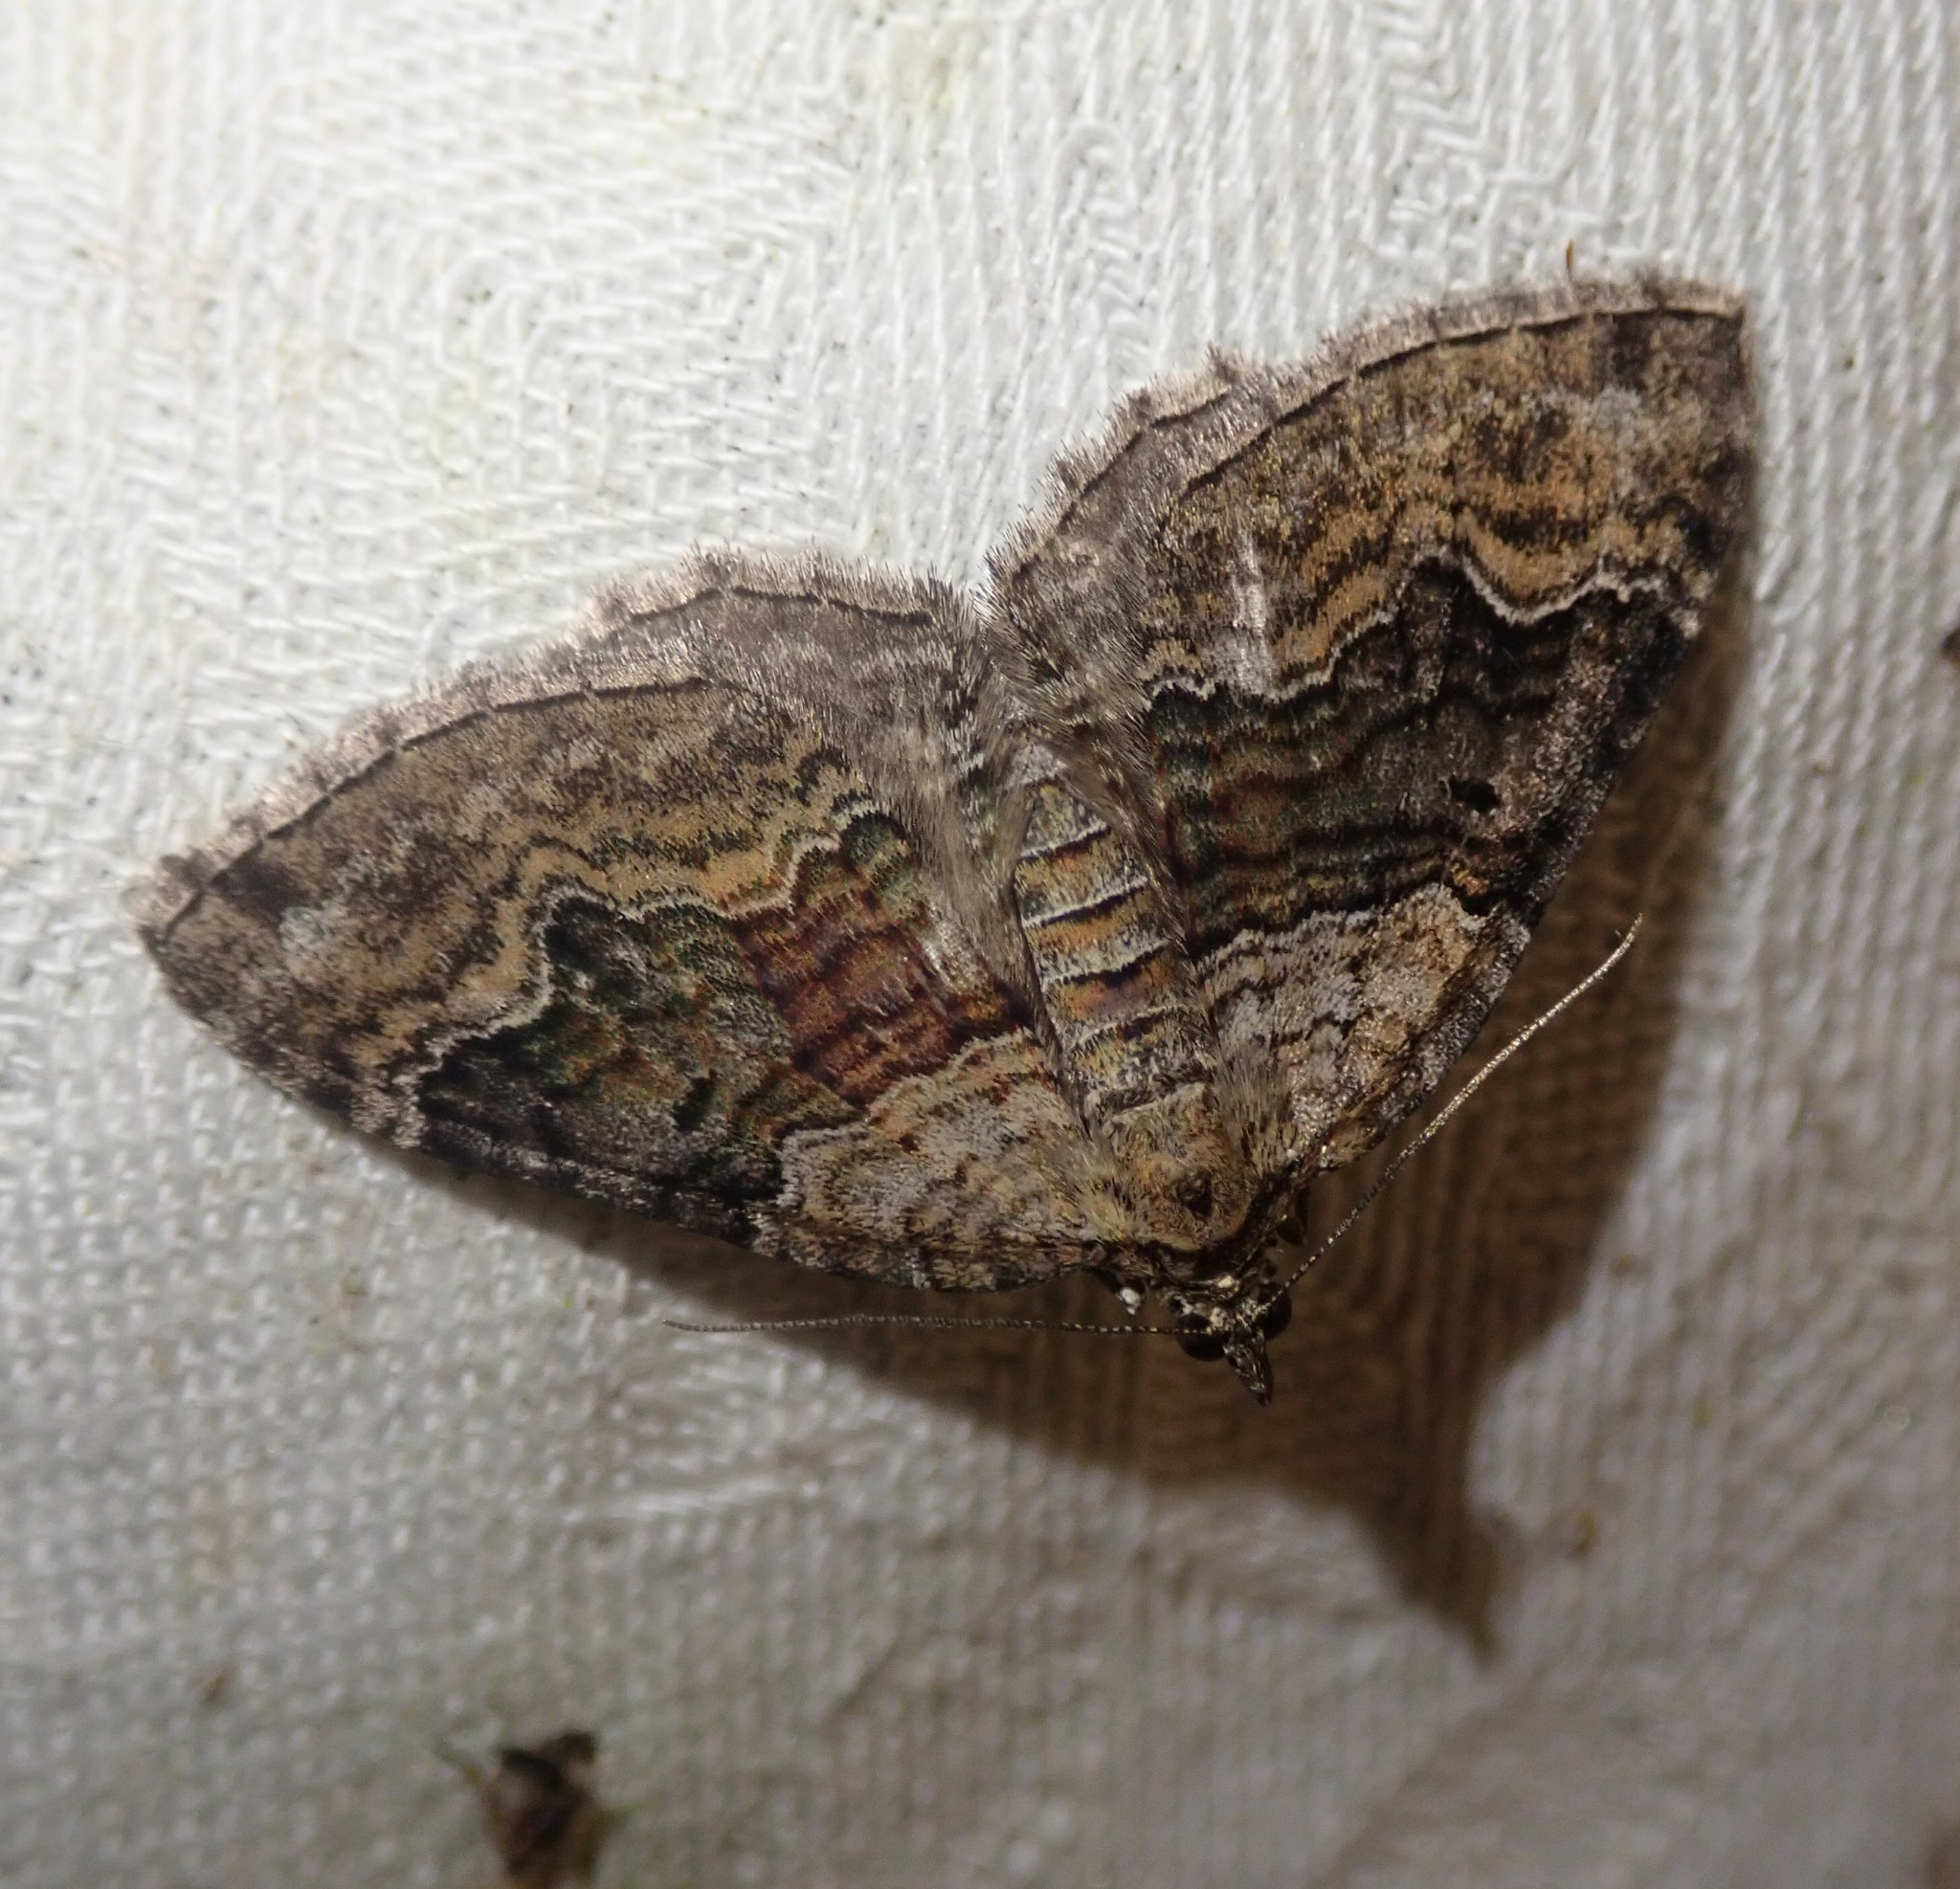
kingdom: Animalia
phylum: Arthropoda
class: Insecta
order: Lepidoptera
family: Geometridae
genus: Xanthorhoe
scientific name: Xanthorhoe quadrifasiata
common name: Large twin-spot carpet
